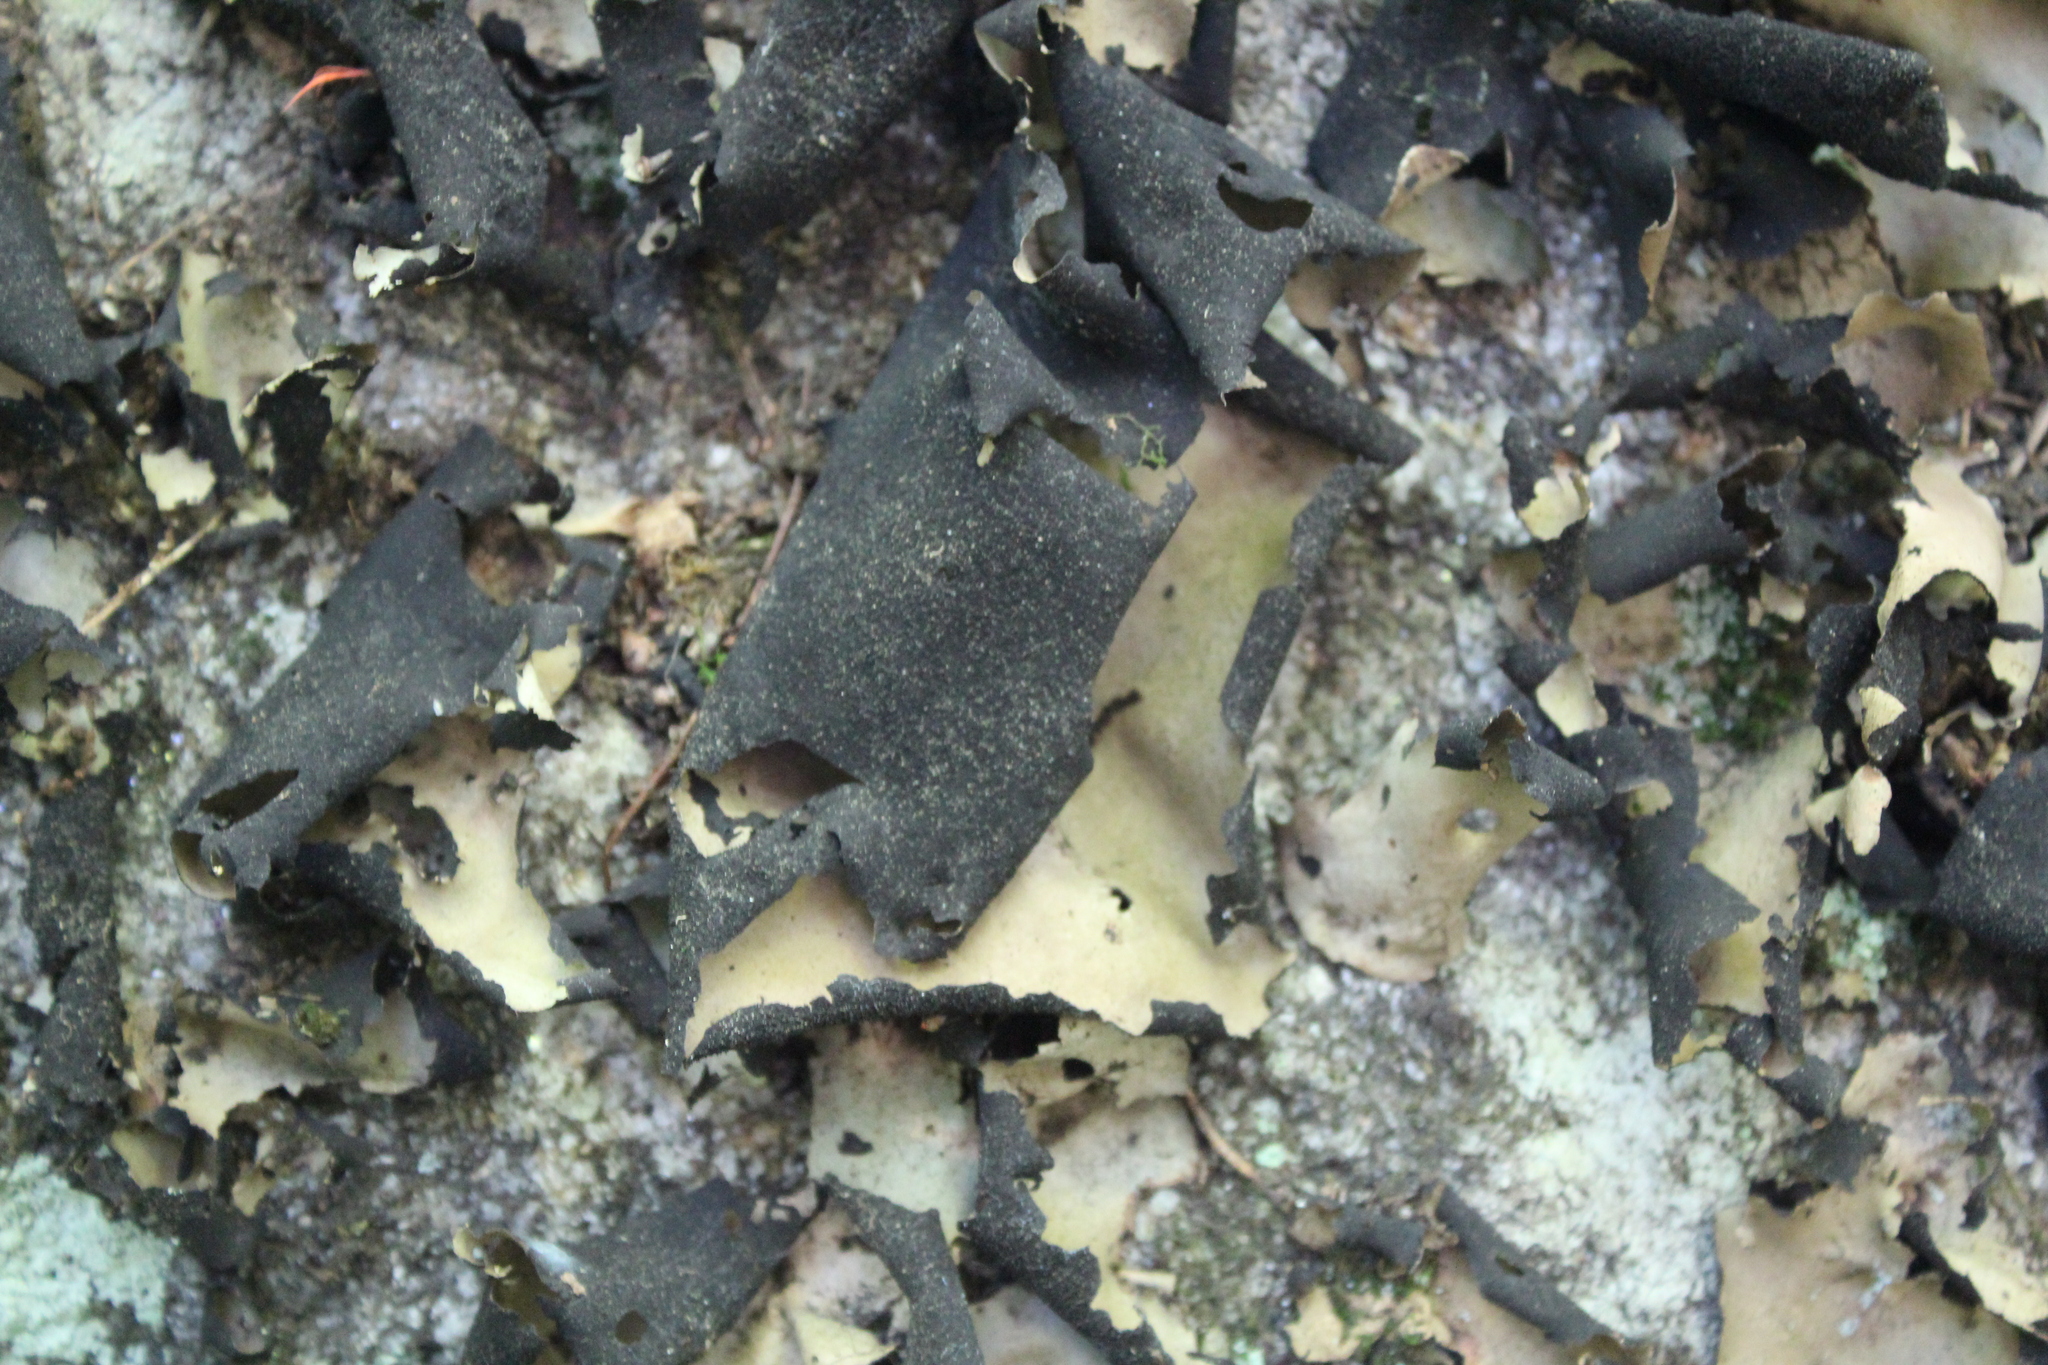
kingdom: Fungi
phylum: Ascomycota
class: Lecanoromycetes
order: Umbilicariales
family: Umbilicariaceae
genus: Umbilicaria
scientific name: Umbilicaria mammulata
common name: Smooth rock tripe
